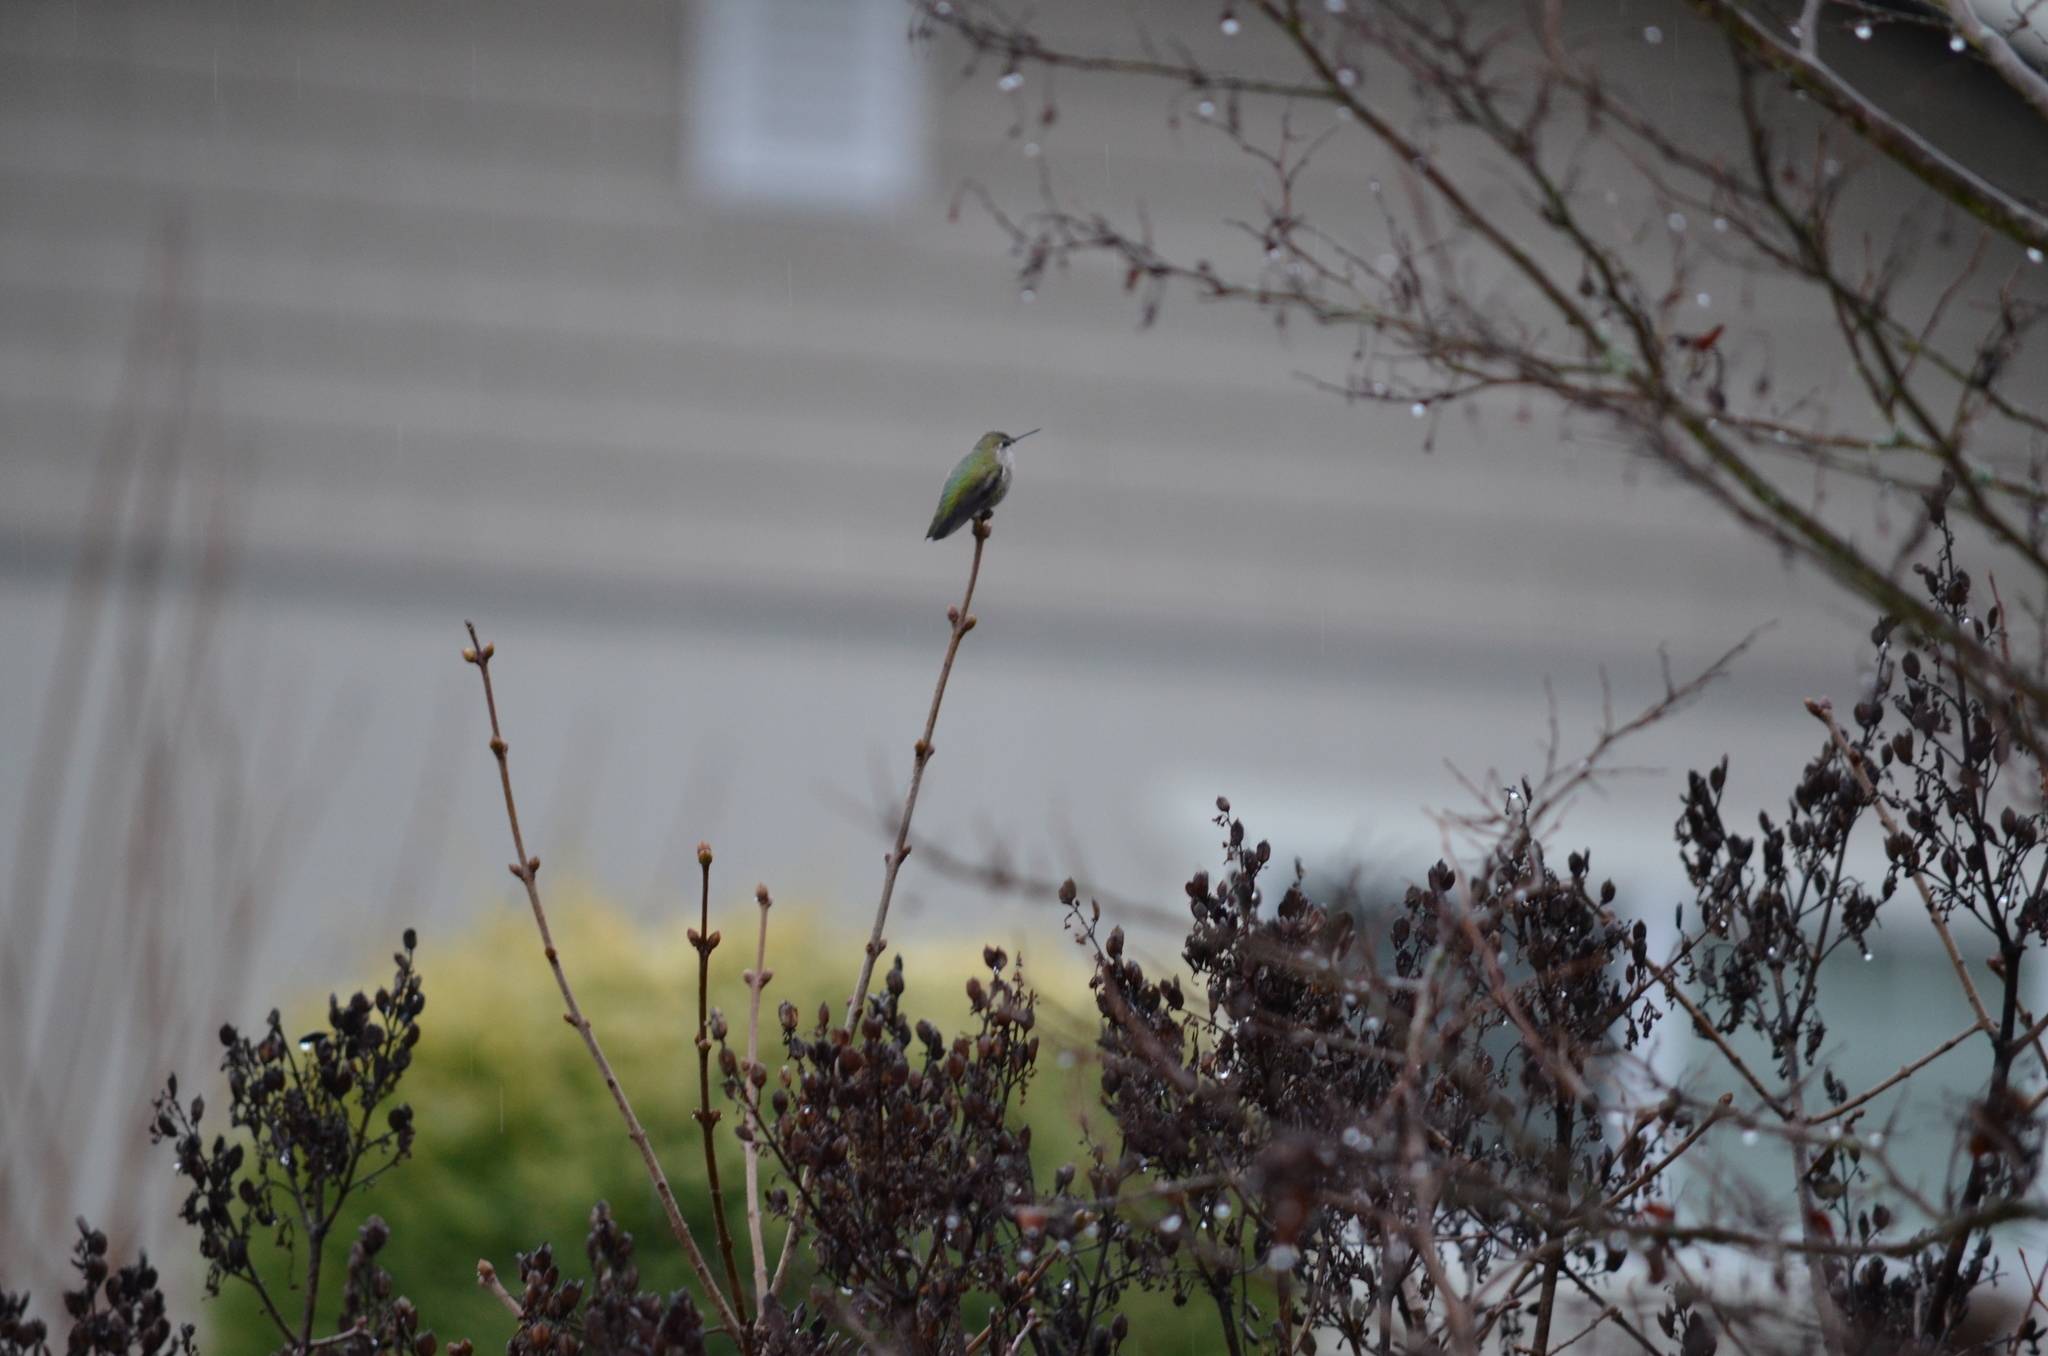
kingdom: Animalia
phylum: Chordata
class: Aves
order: Apodiformes
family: Trochilidae
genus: Calypte
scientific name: Calypte anna
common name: Anna's hummingbird
